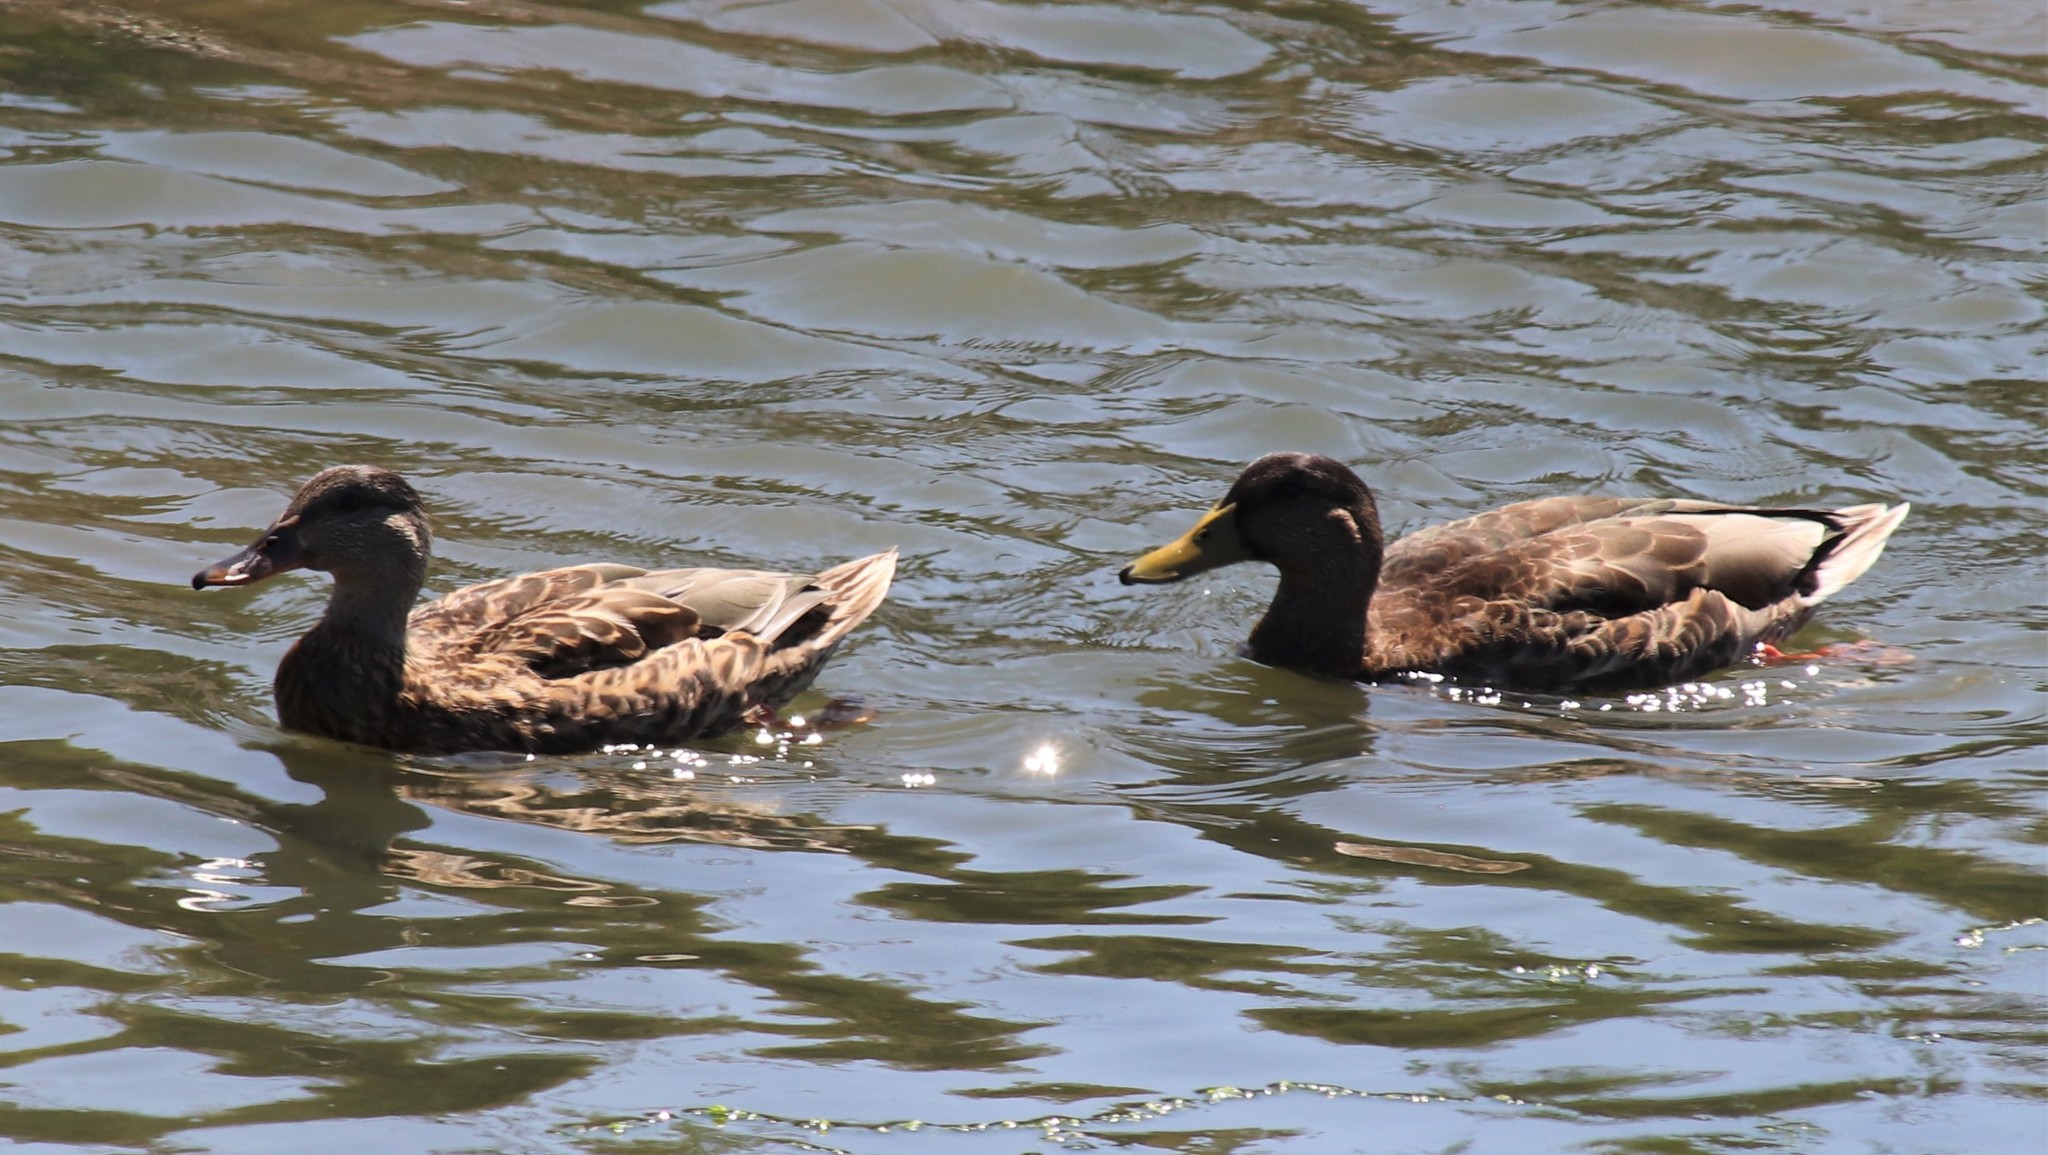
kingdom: Animalia
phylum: Chordata
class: Aves
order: Anseriformes
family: Anatidae
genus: Anas
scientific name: Anas platyrhynchos
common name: Mallard
